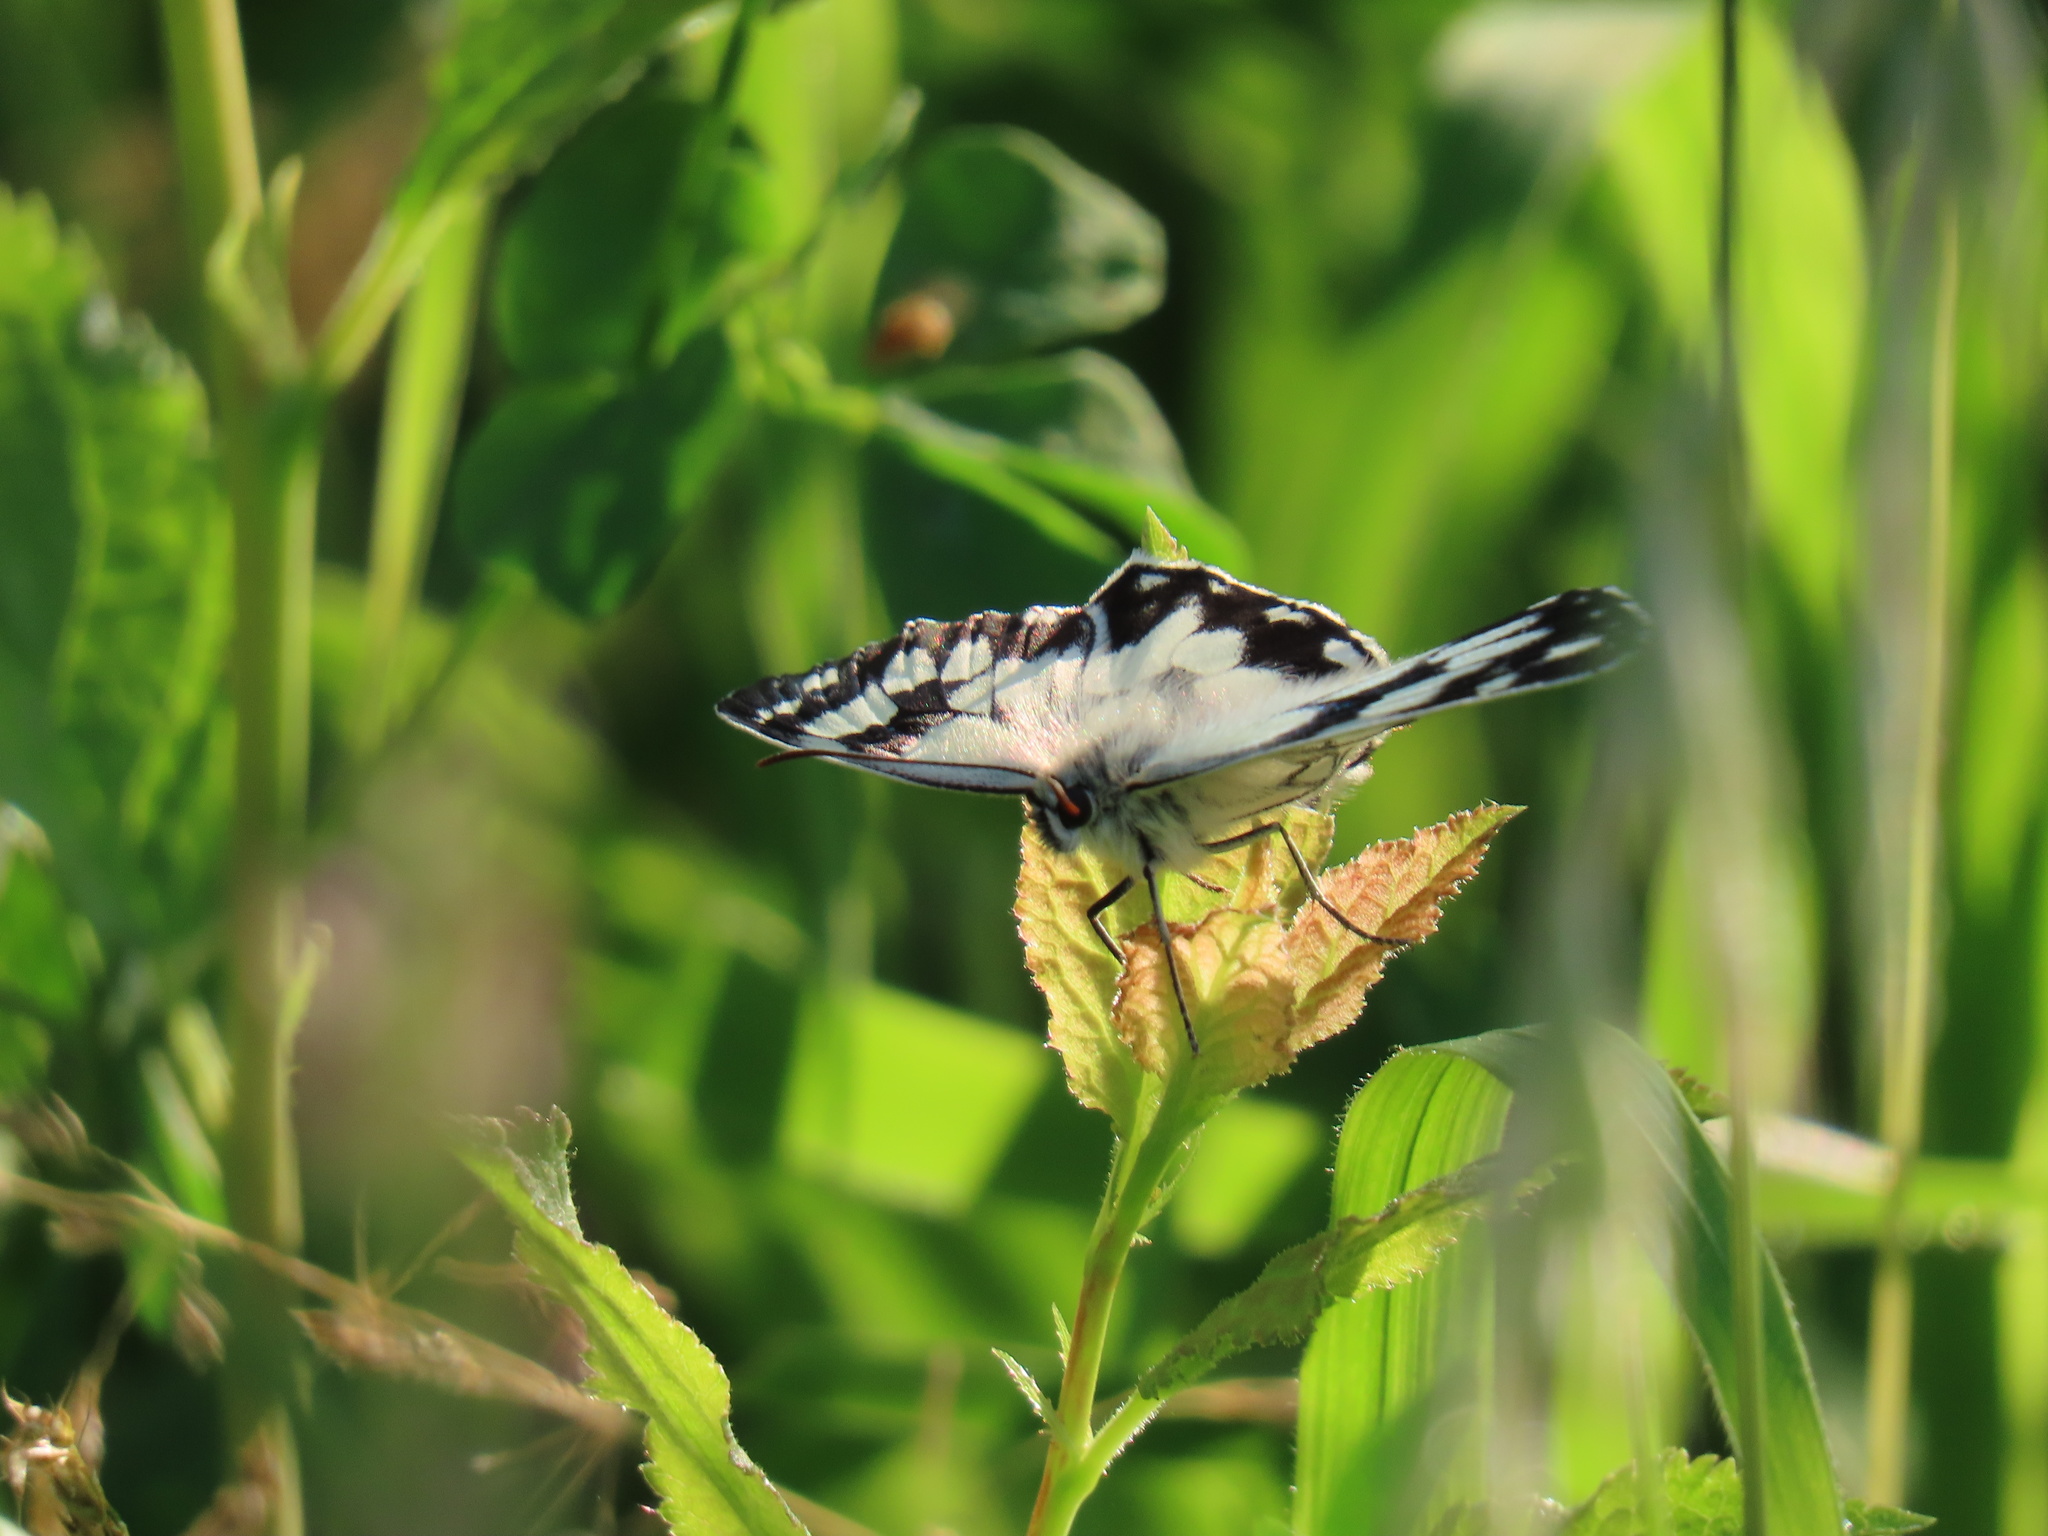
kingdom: Animalia
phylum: Arthropoda
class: Insecta
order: Lepidoptera
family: Nymphalidae
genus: Melanargia
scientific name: Melanargia galathea
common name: Marbled white
